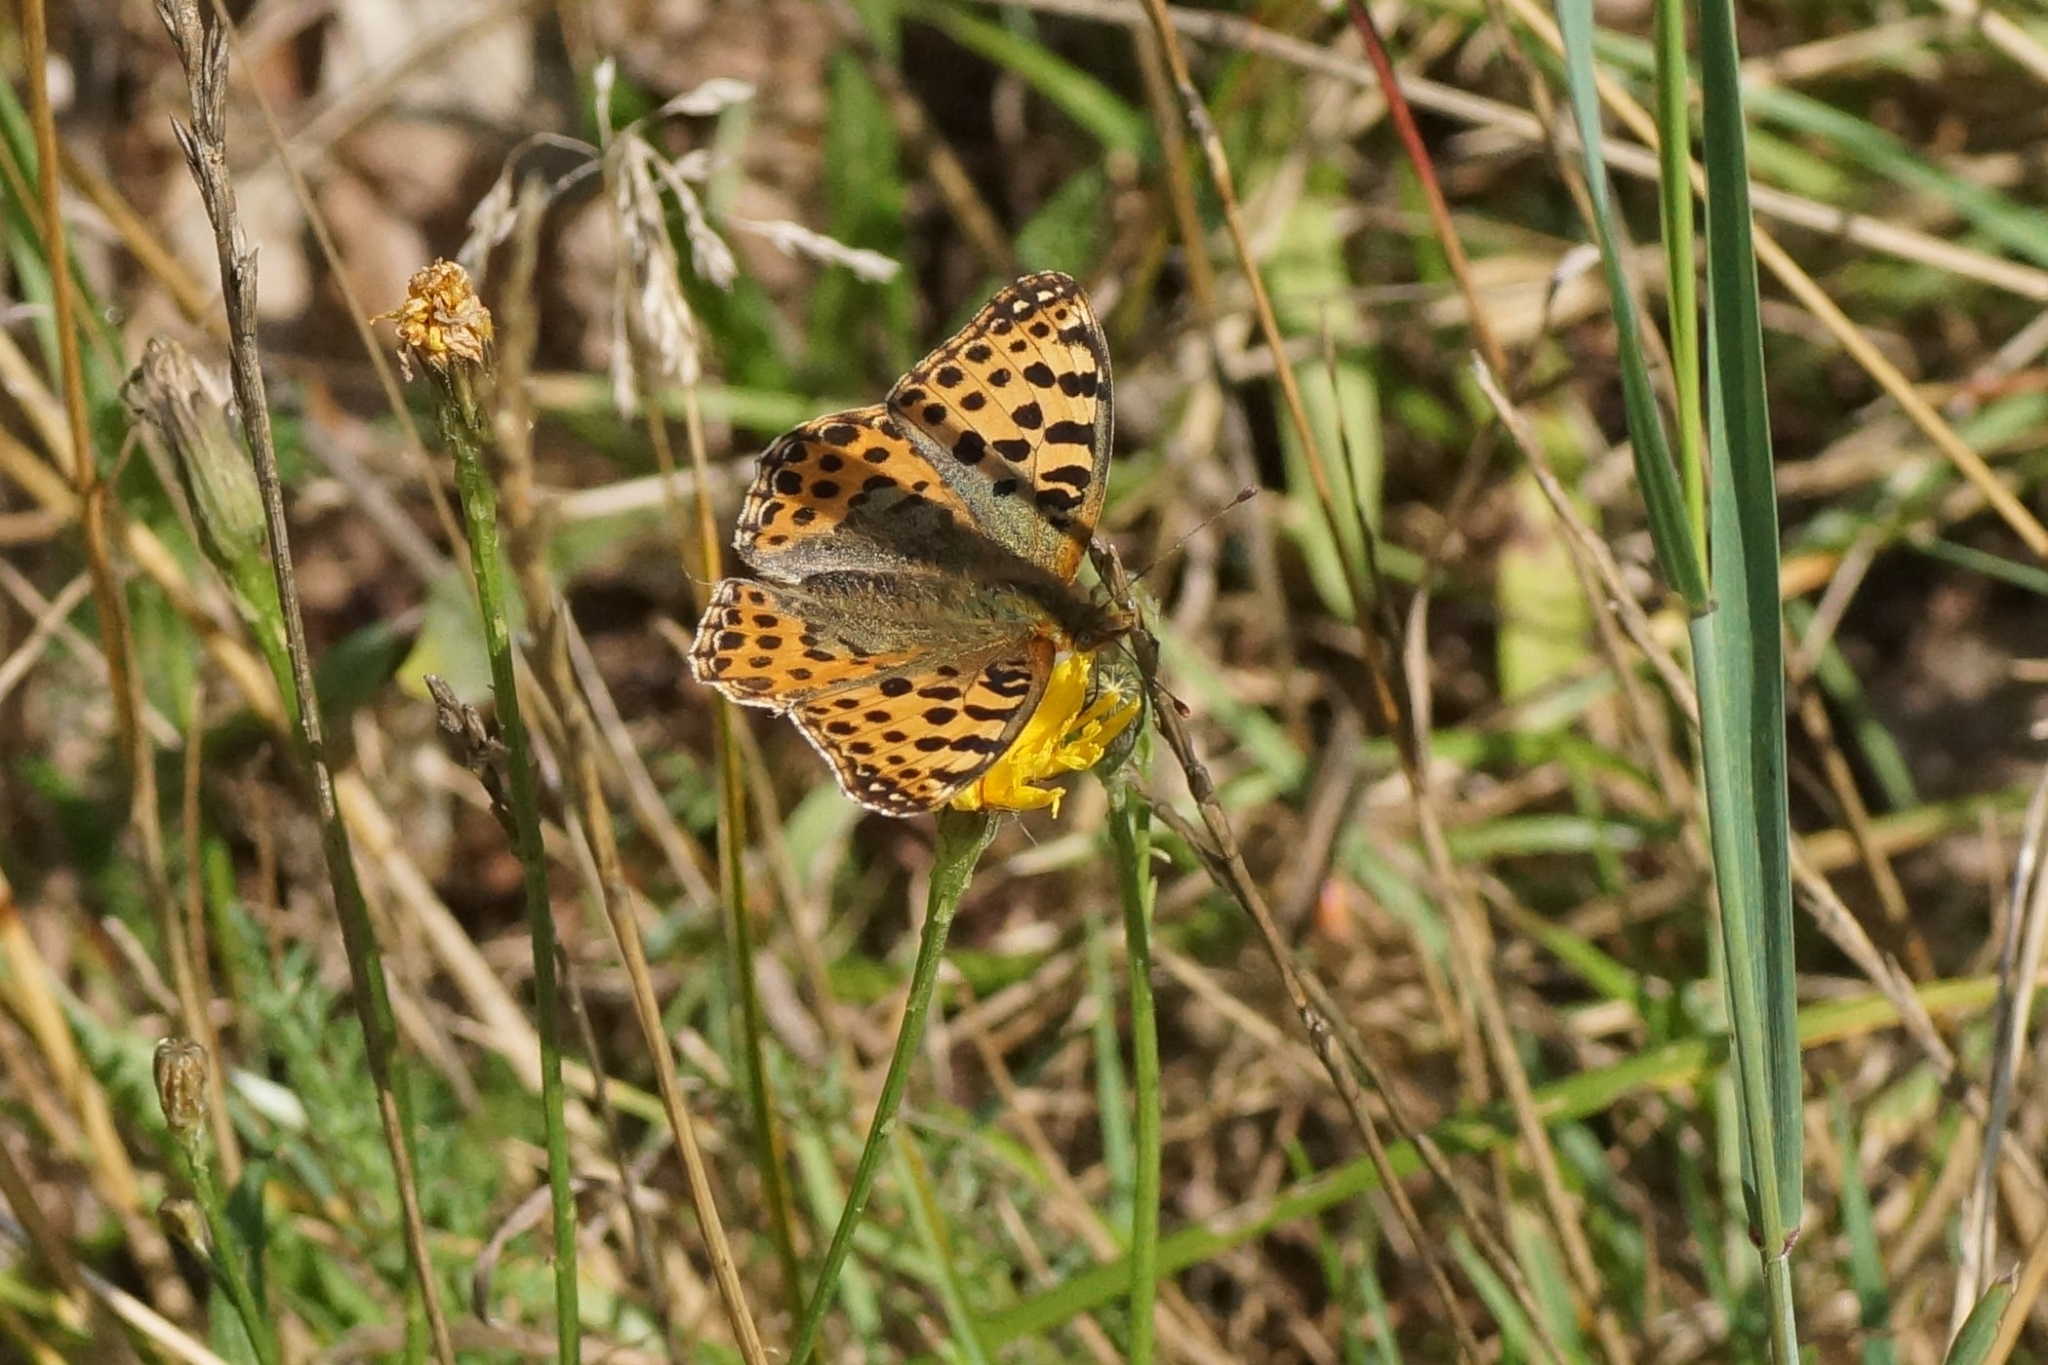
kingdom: Animalia
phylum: Arthropoda
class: Insecta
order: Lepidoptera
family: Nymphalidae
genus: Issoria
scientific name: Issoria lathonia
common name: Queen of spain fritillary
